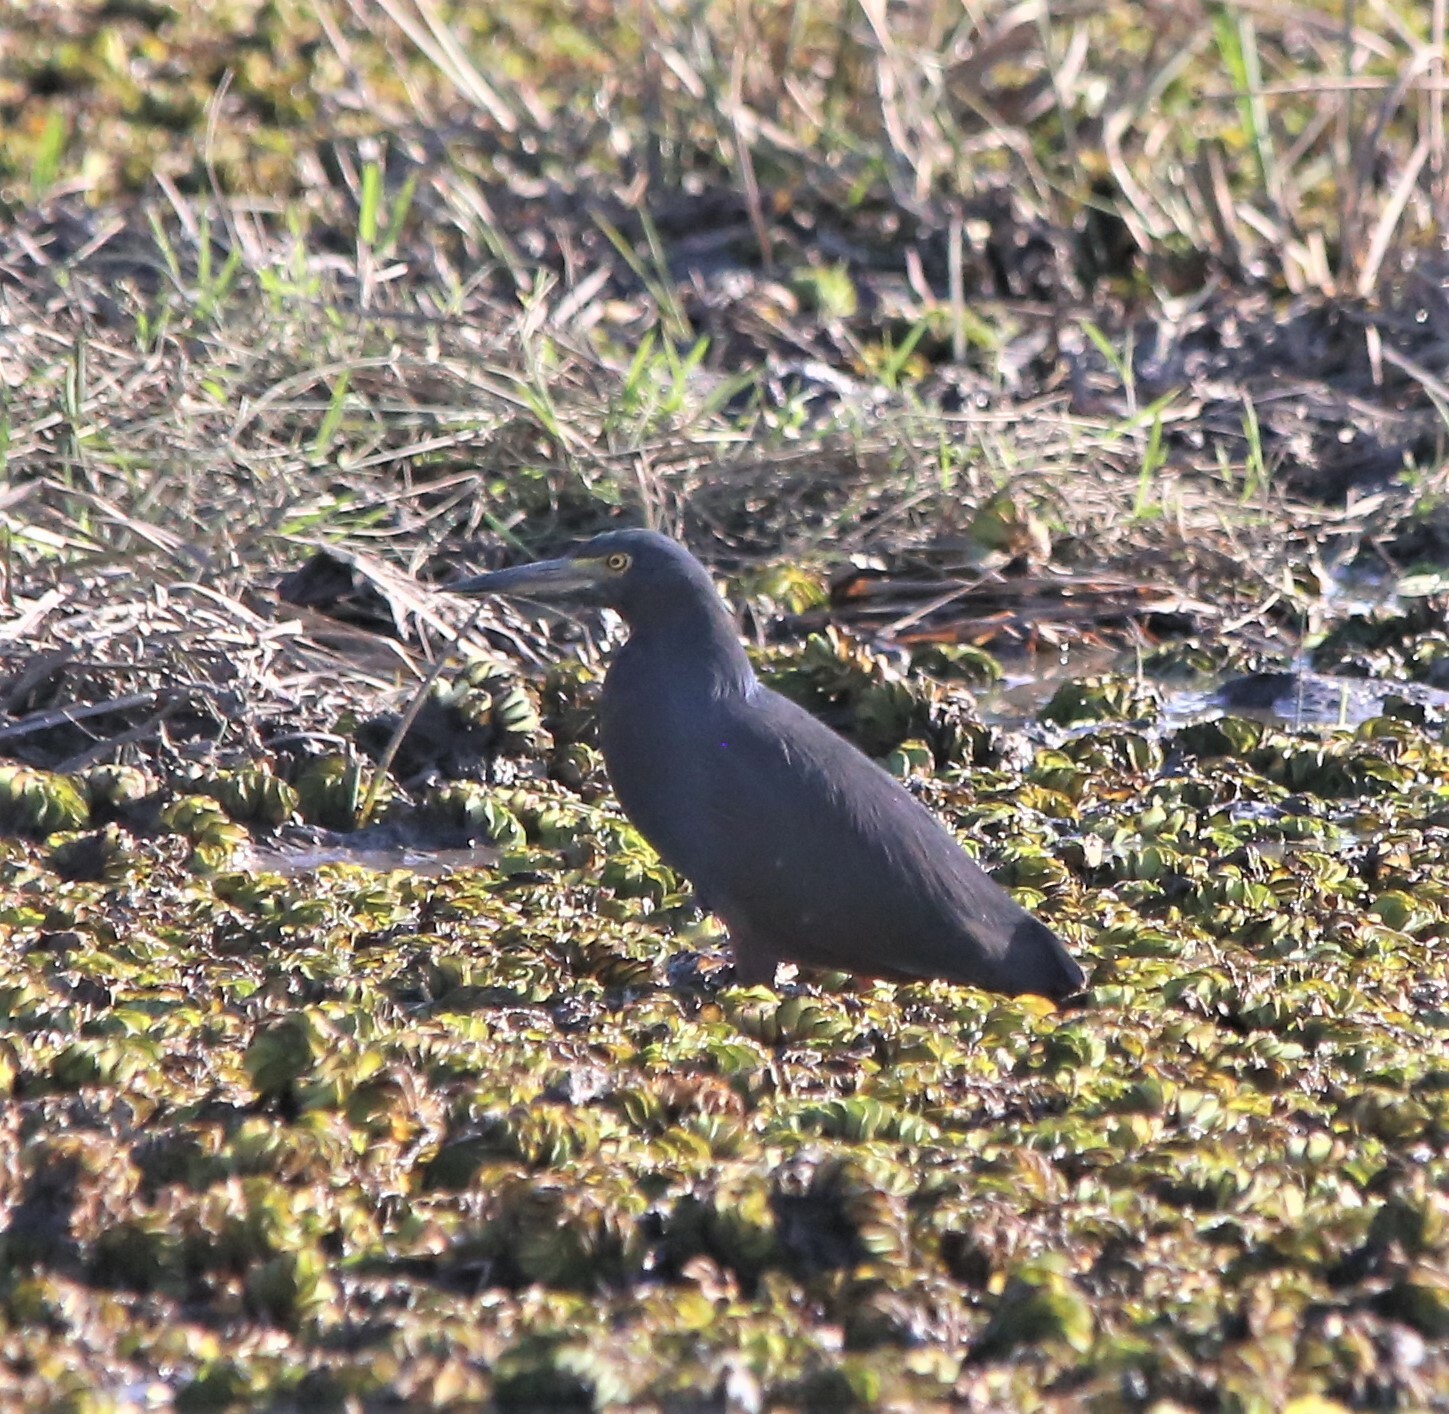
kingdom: Animalia
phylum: Chordata
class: Aves
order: Pelecaniformes
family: Ardeidae
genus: Ardeola
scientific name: Ardeola rufiventris
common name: Rufous-bellied heron
